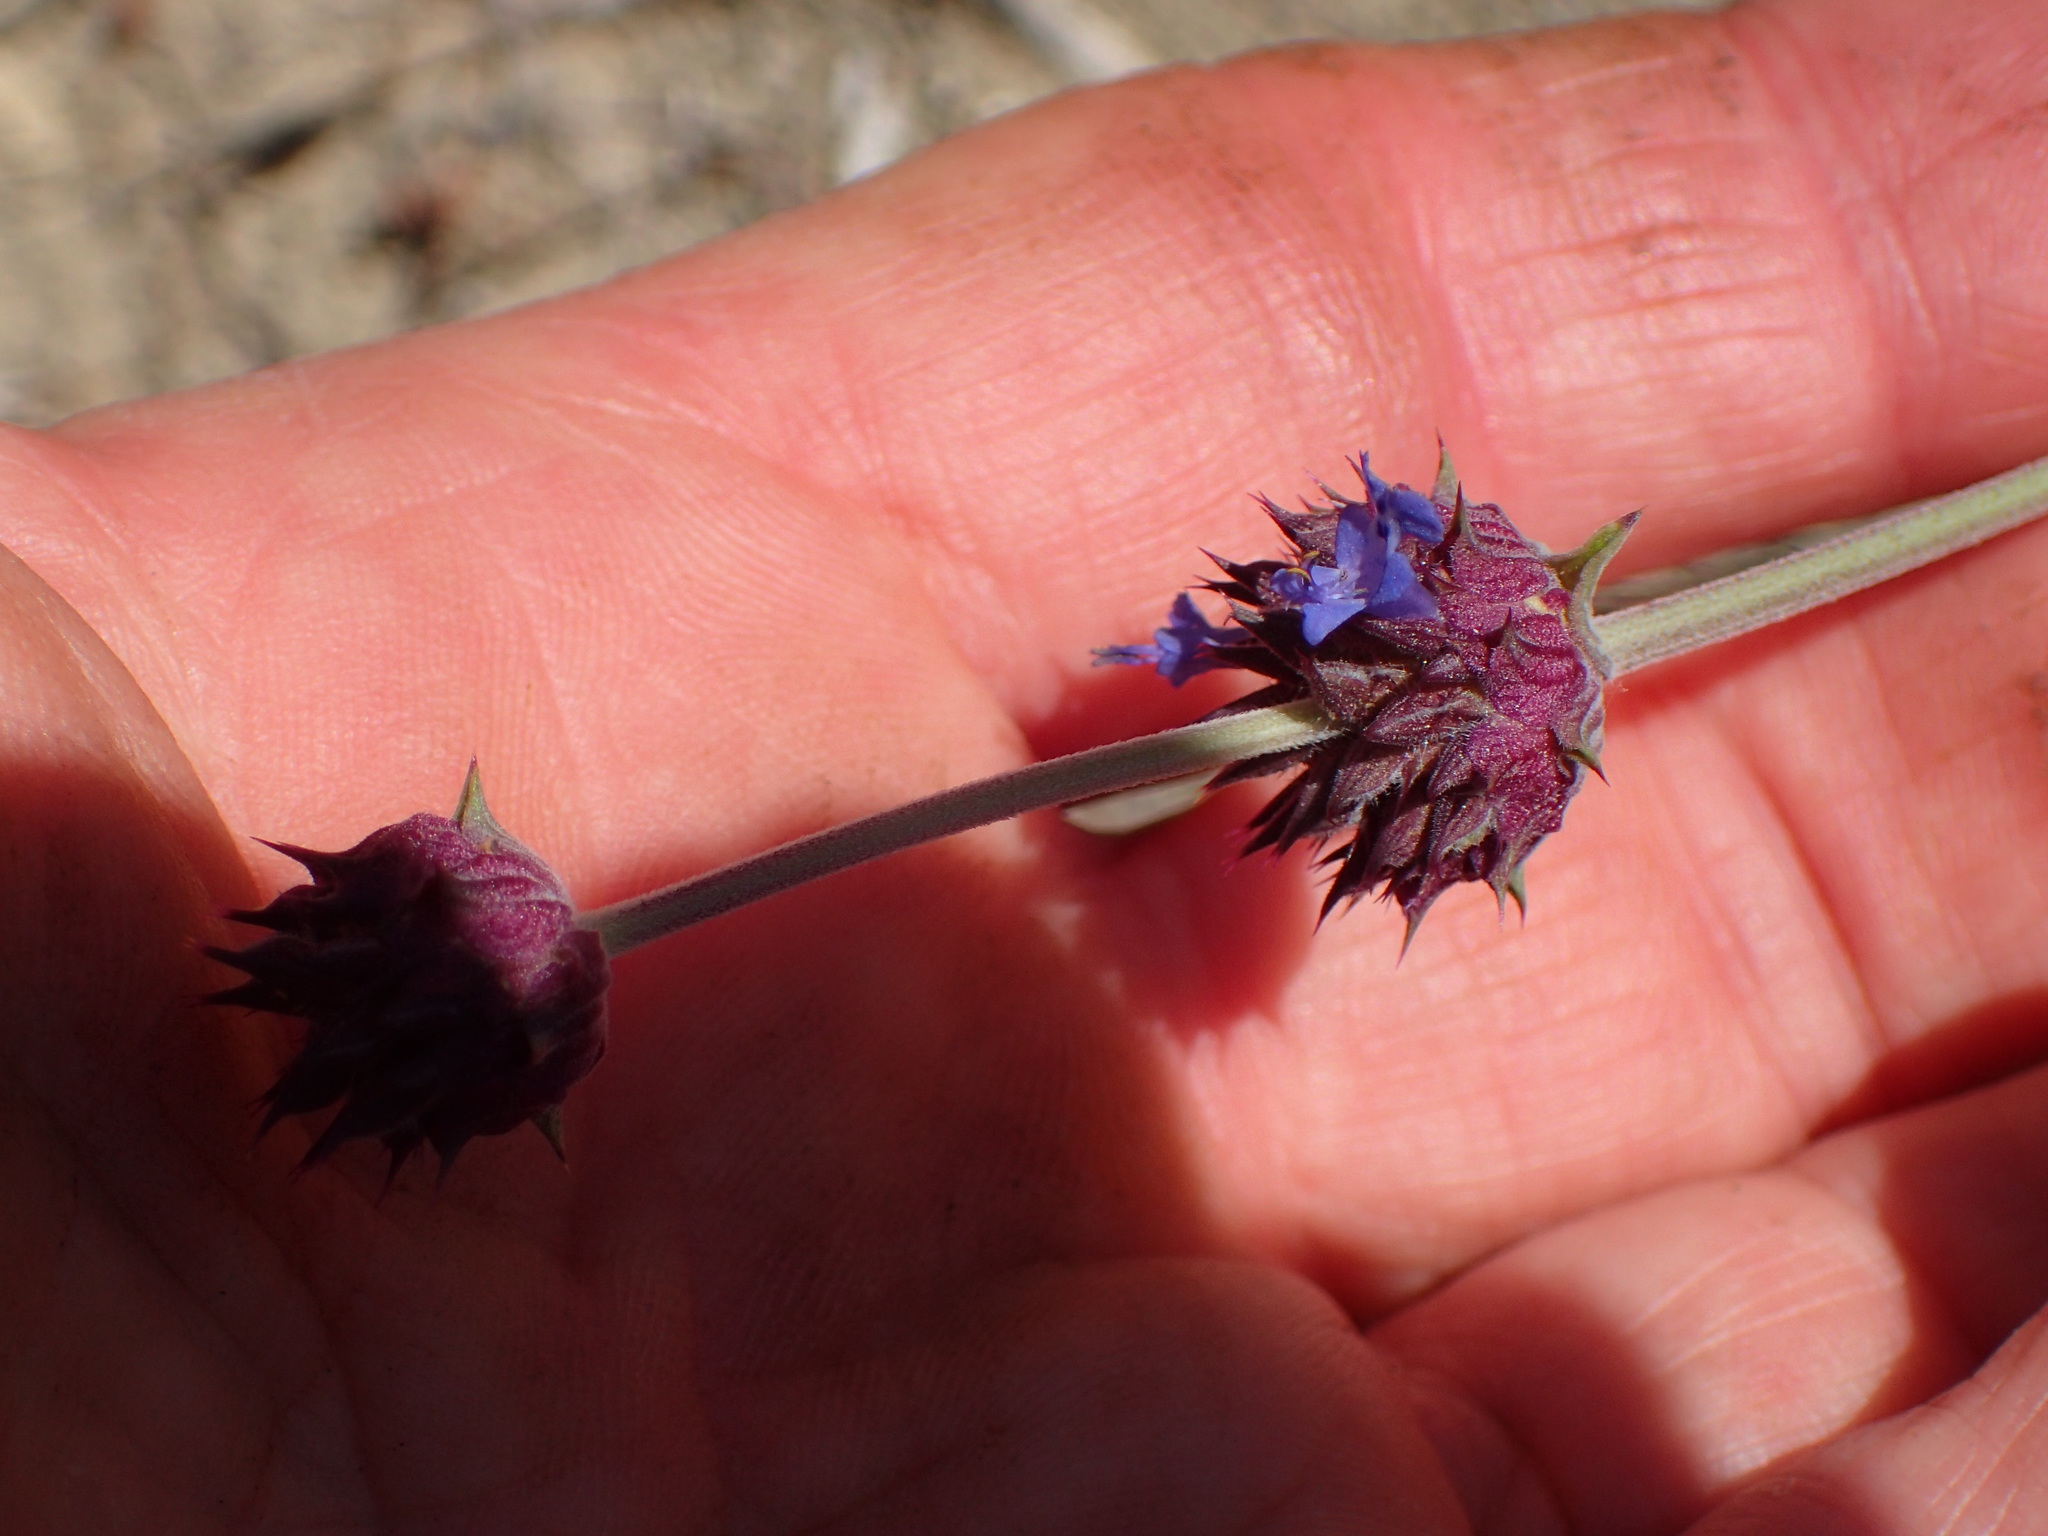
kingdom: Plantae
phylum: Tracheophyta
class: Magnoliopsida
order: Lamiales
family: Lamiaceae
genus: Salvia
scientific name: Salvia columbariae
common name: Chia
